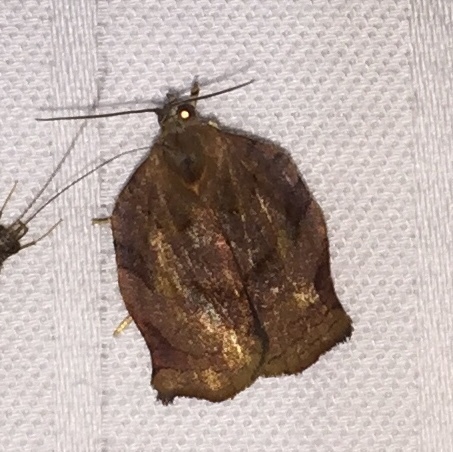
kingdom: Animalia
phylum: Arthropoda
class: Insecta
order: Lepidoptera
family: Tortricidae
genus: Archips
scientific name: Archips purpurana
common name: Omnivorous leafroller
